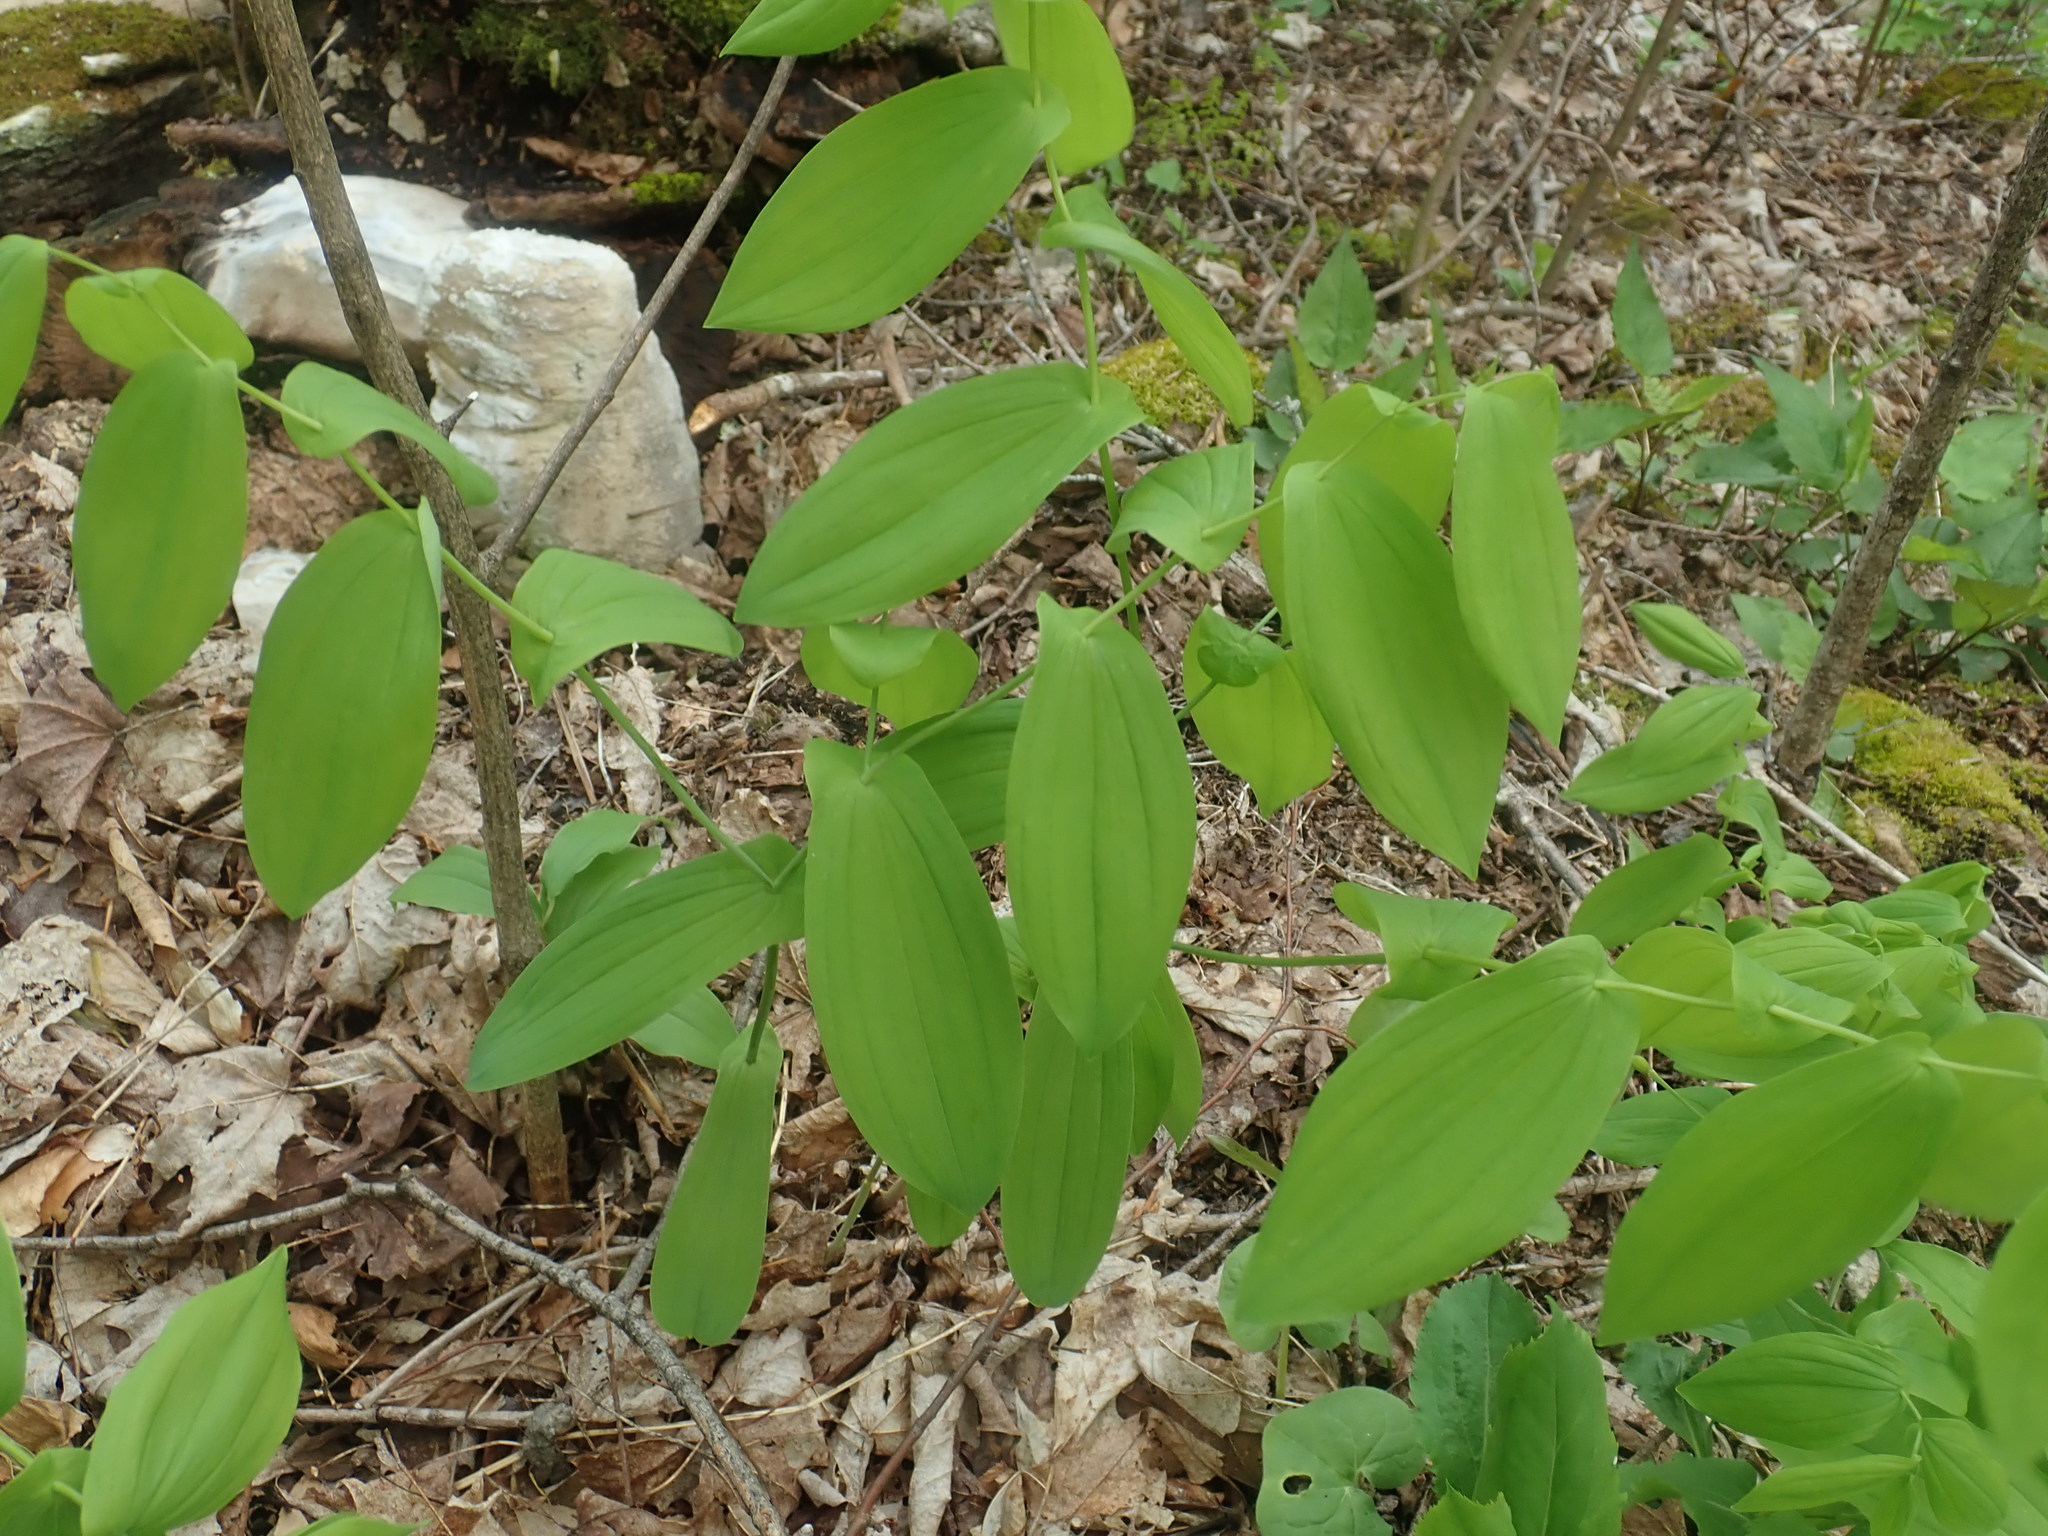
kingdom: Plantae
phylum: Tracheophyta
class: Liliopsida
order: Liliales
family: Colchicaceae
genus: Uvularia
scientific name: Uvularia grandiflora
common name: Bellwort
